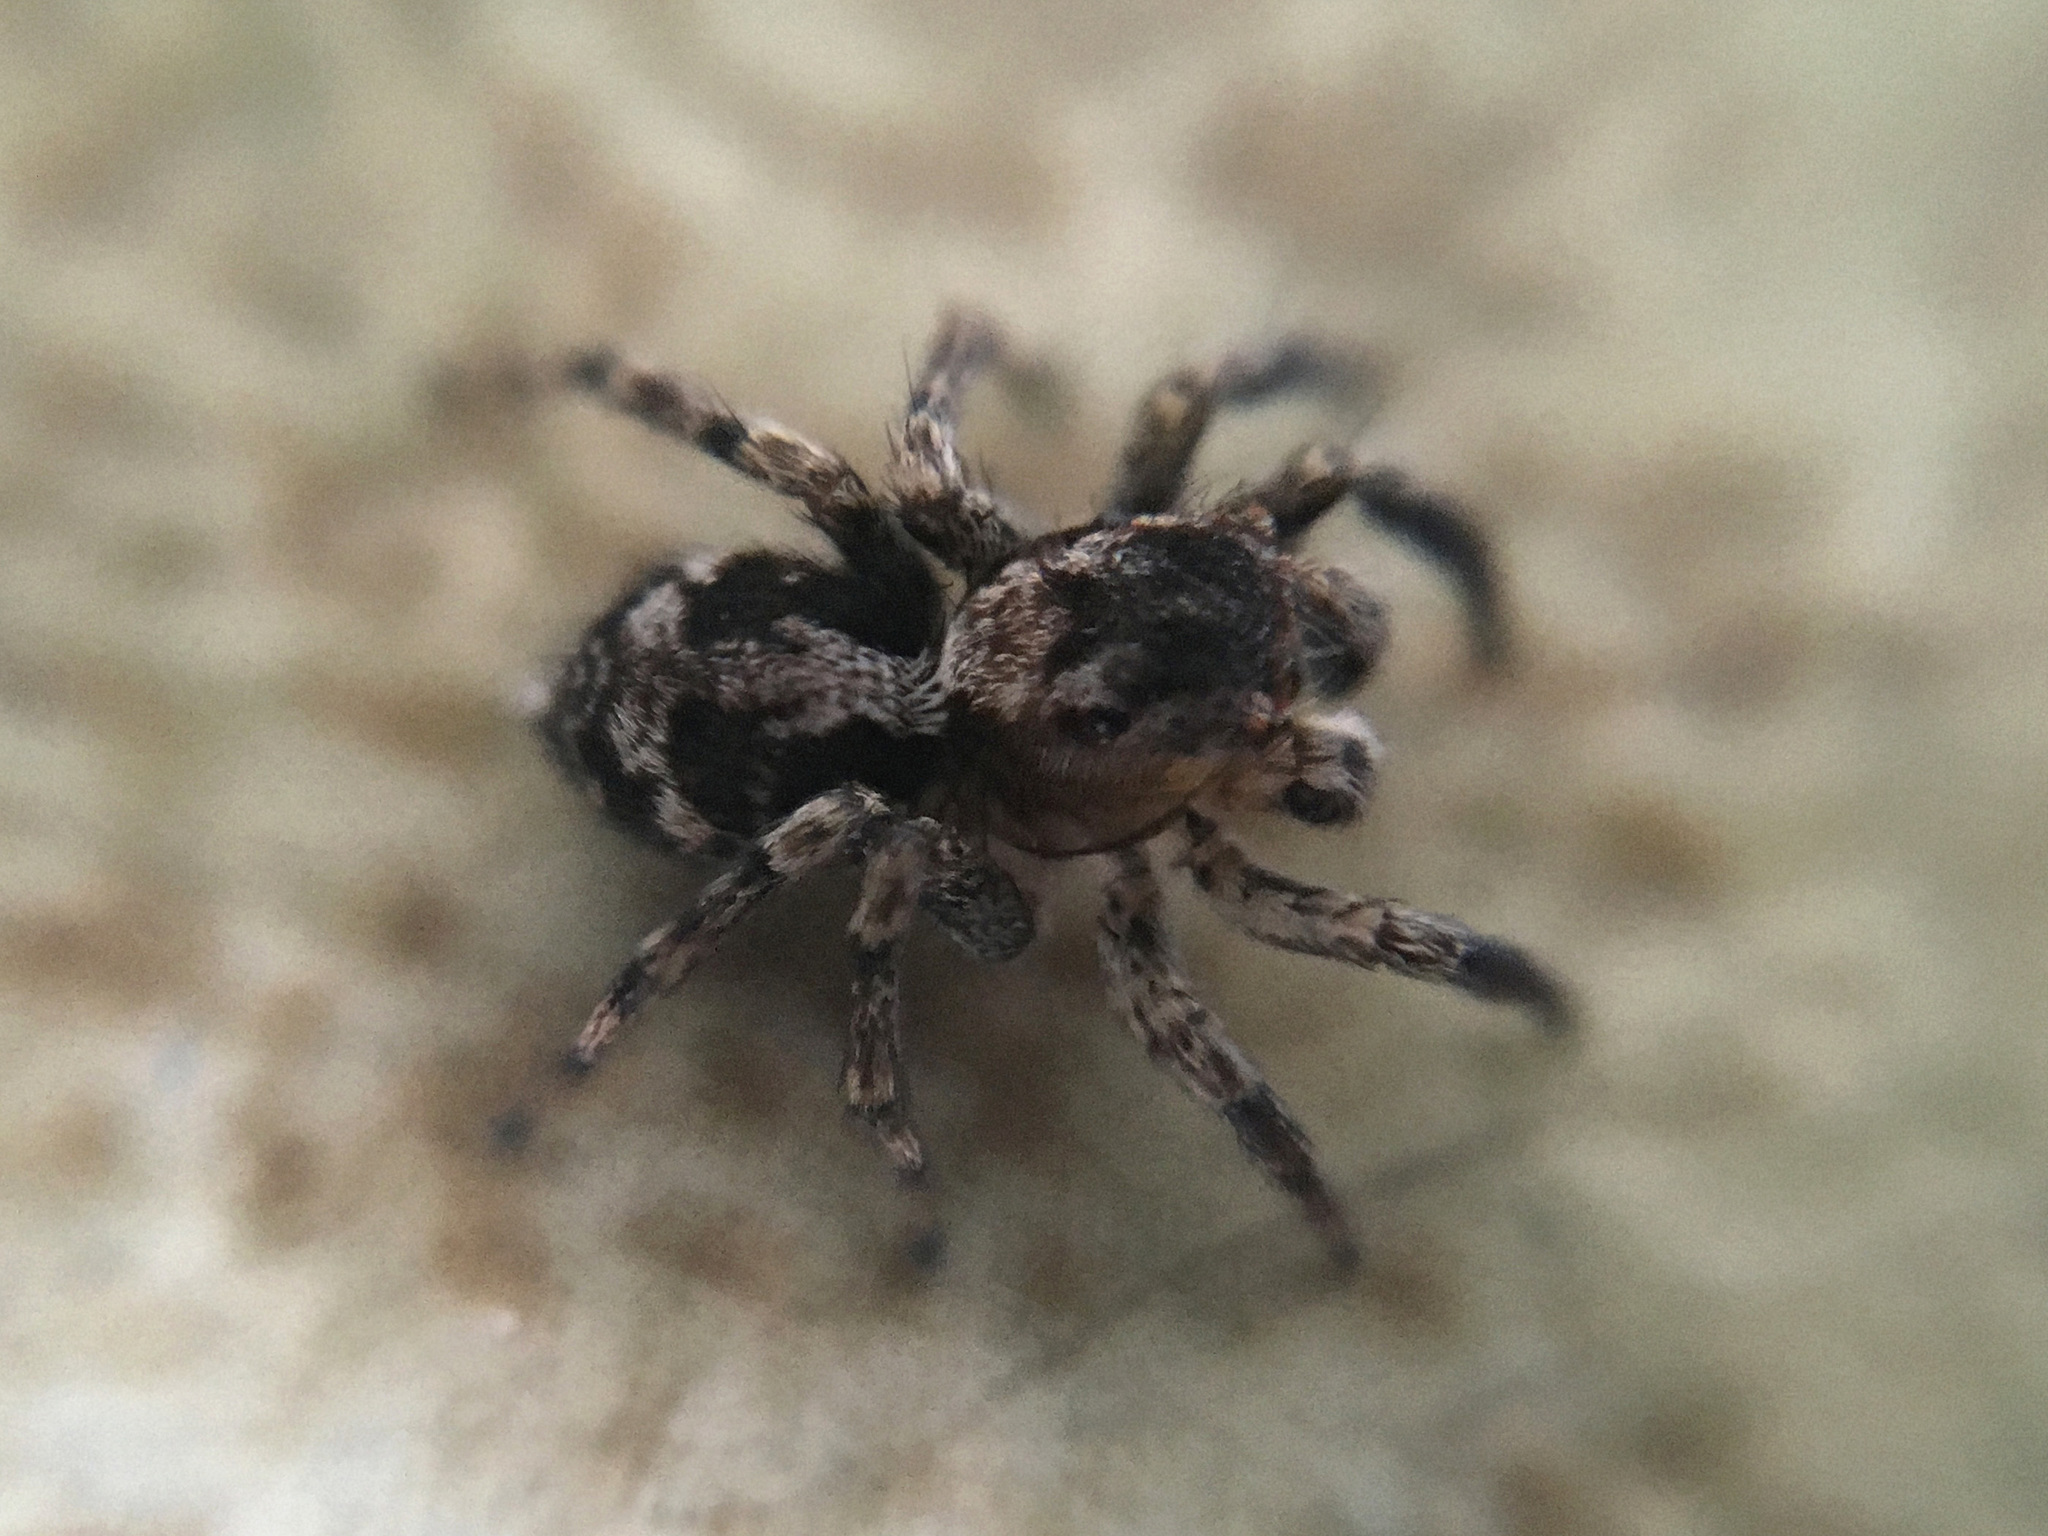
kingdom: Animalia
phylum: Arthropoda
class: Arachnida
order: Araneae
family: Salticidae
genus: Naphrys
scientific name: Naphrys pulex
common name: Flea jumping spider
